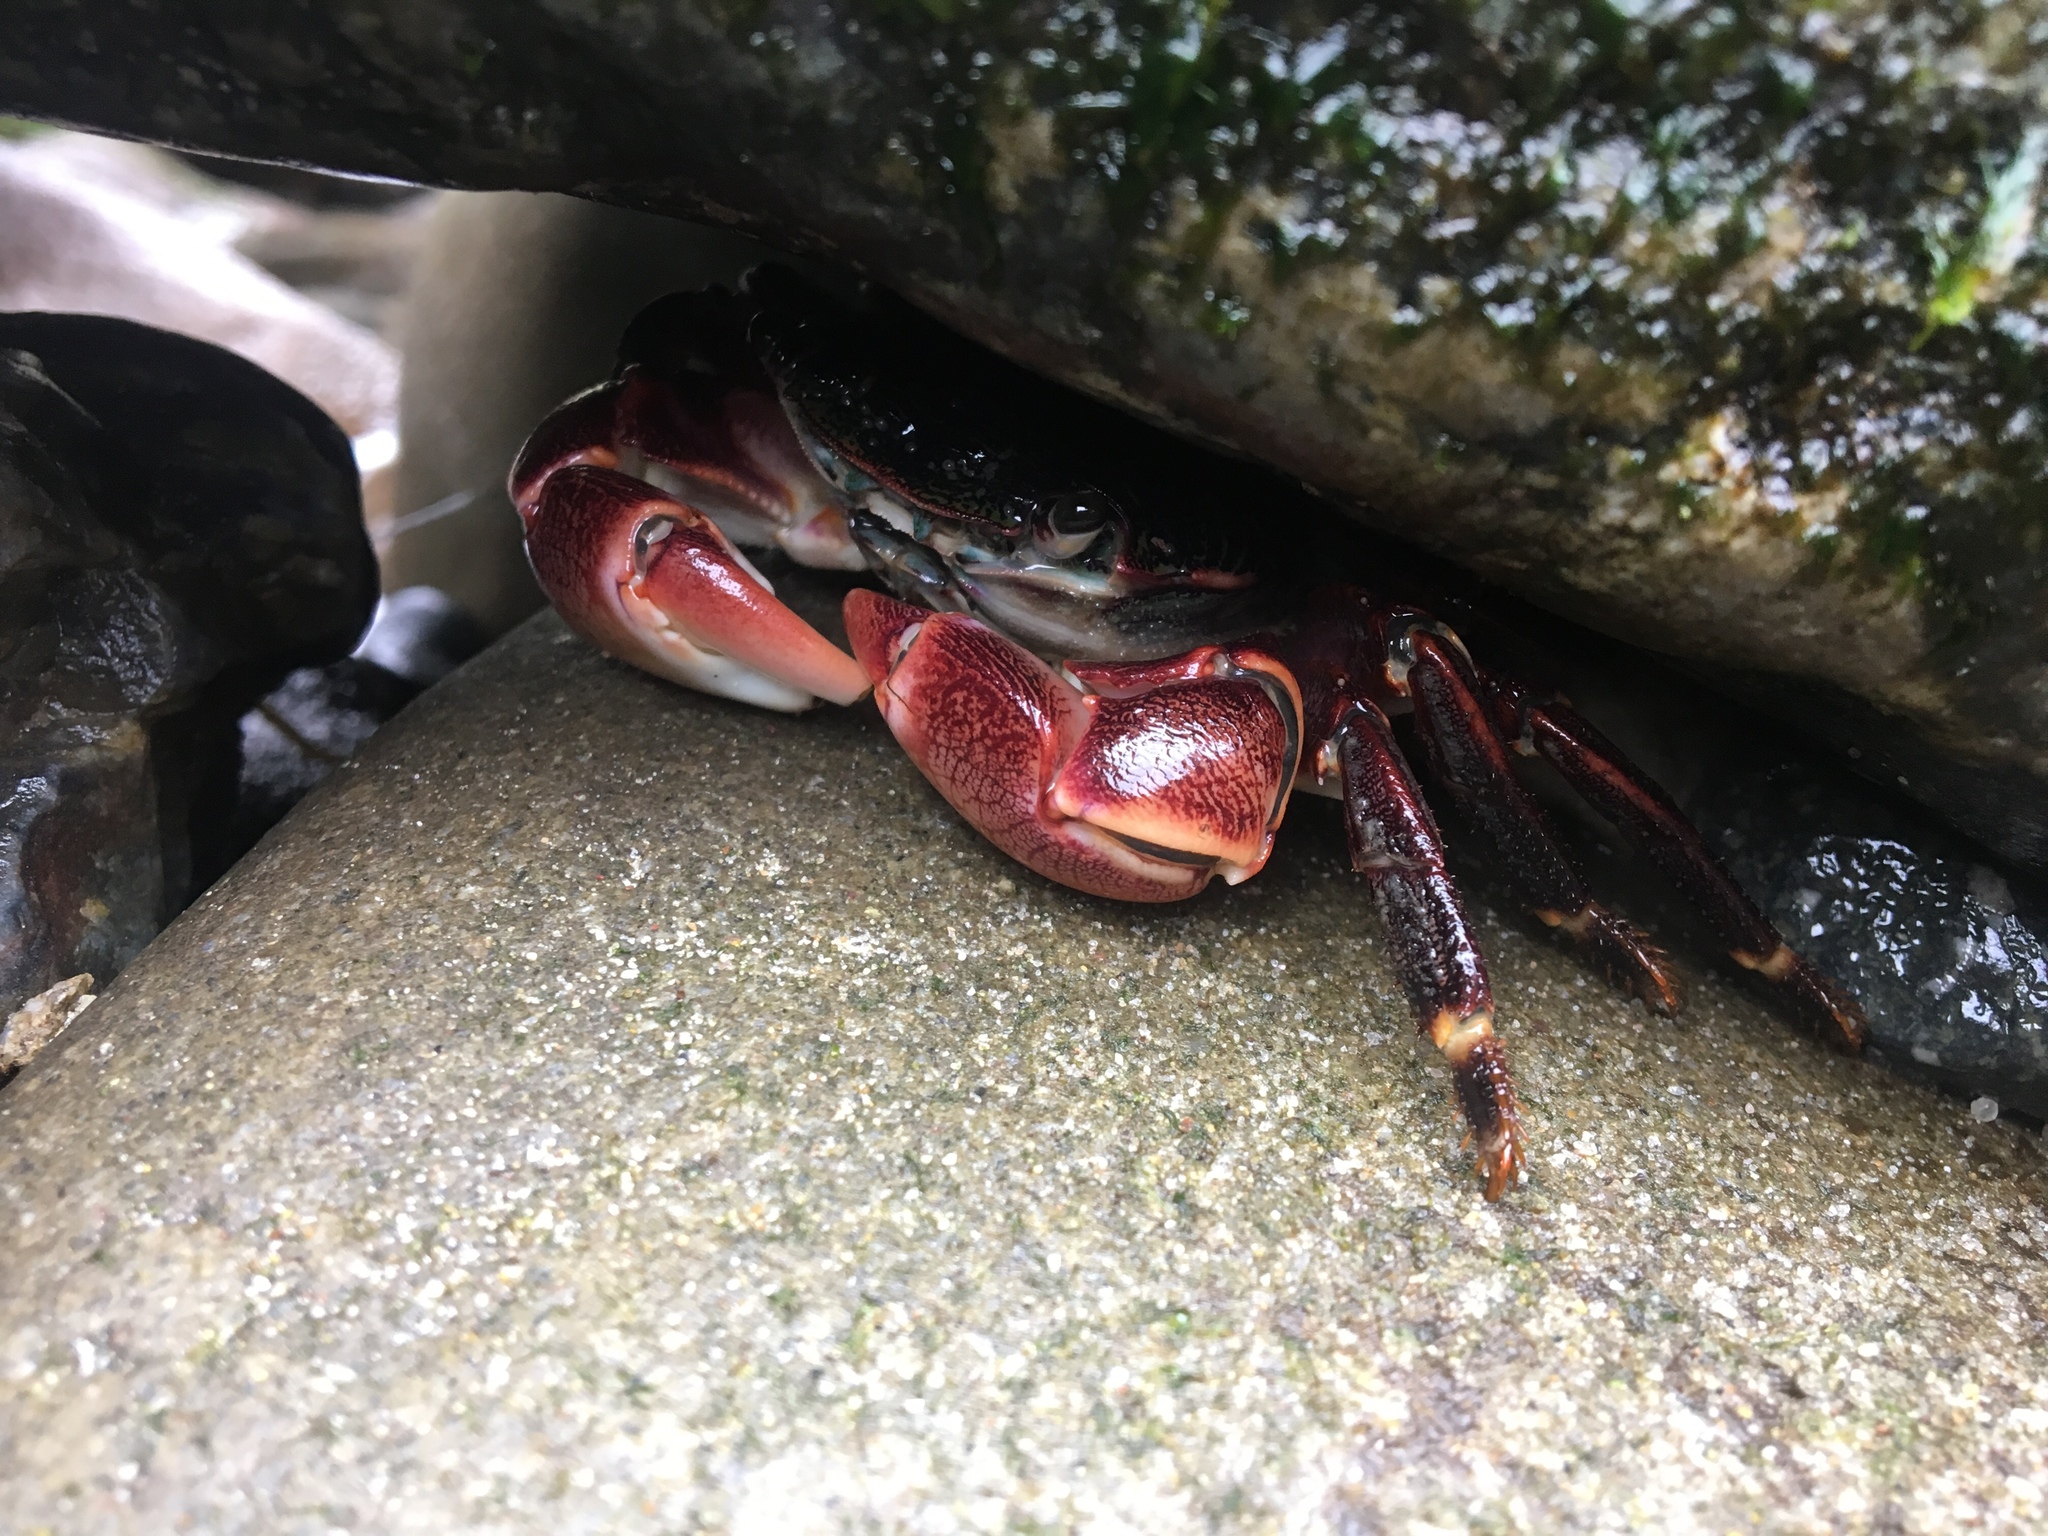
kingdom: Animalia
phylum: Arthropoda
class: Malacostraca
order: Decapoda
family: Grapsidae
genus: Pachygrapsus
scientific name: Pachygrapsus crassipes
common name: Striped shore crab
